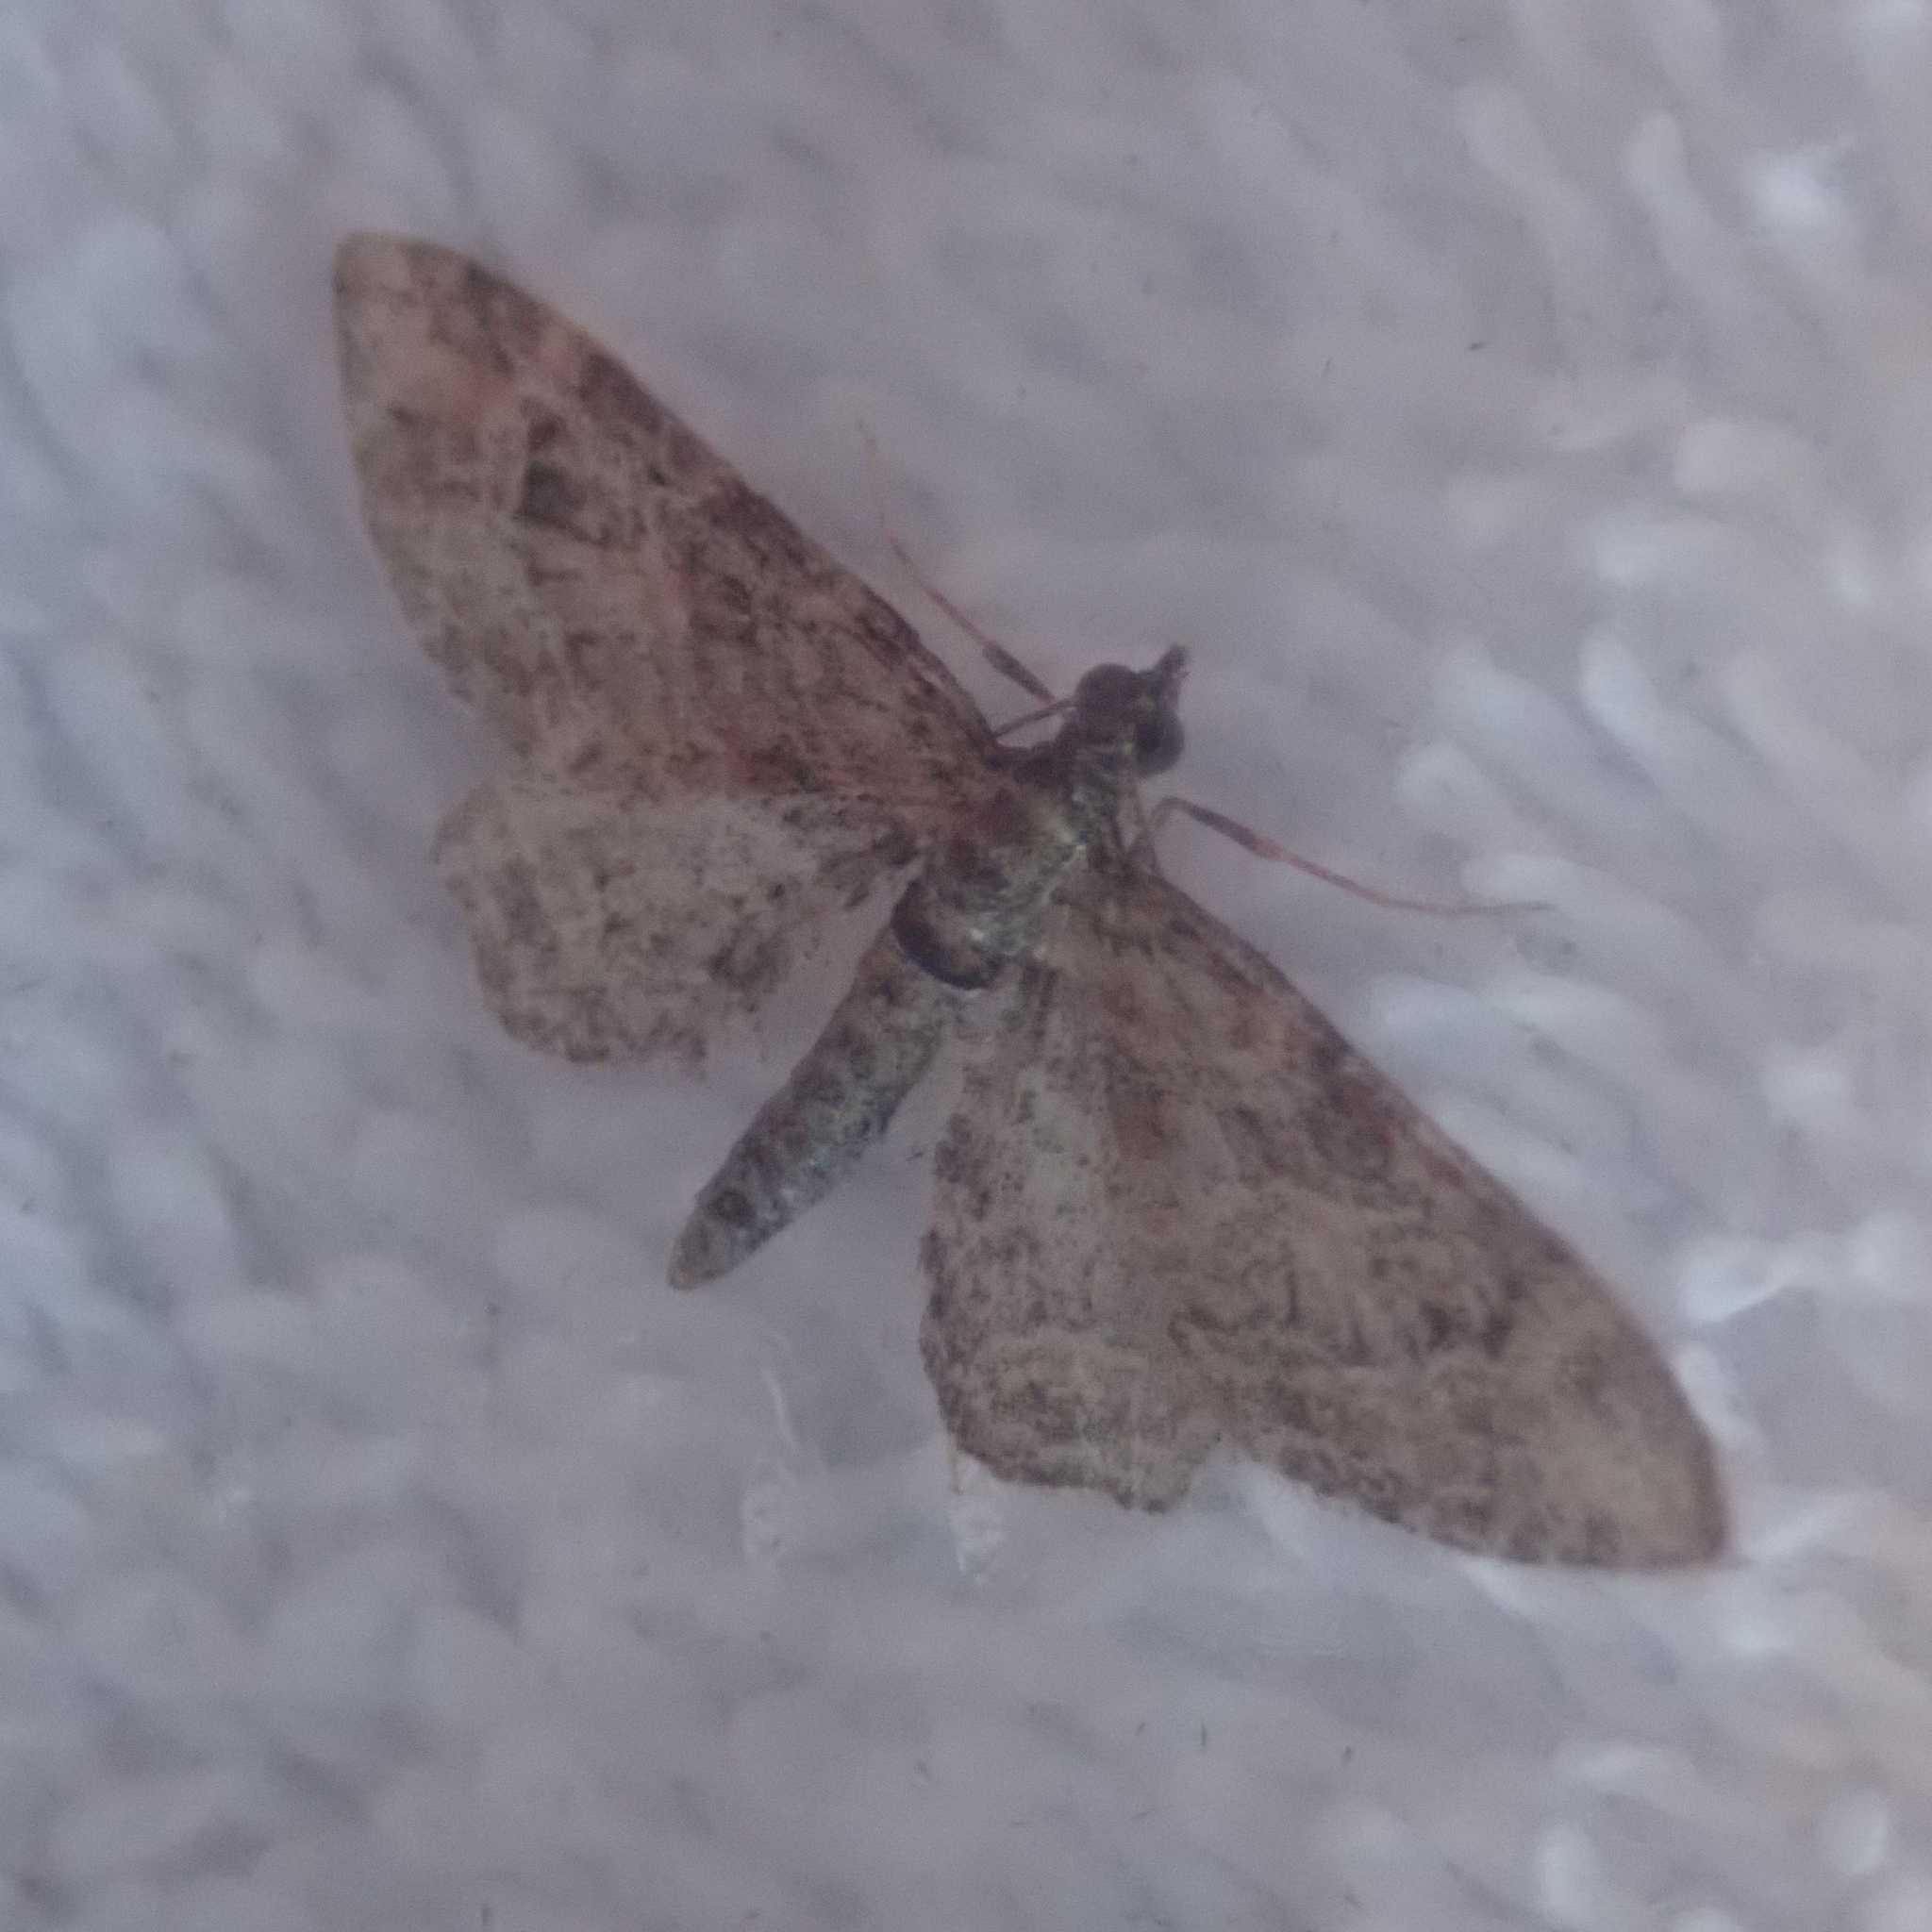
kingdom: Animalia
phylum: Arthropoda
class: Insecta
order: Lepidoptera
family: Geometridae
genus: Gymnoscelis
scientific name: Gymnoscelis rufifasciata
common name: Double-striped pug
